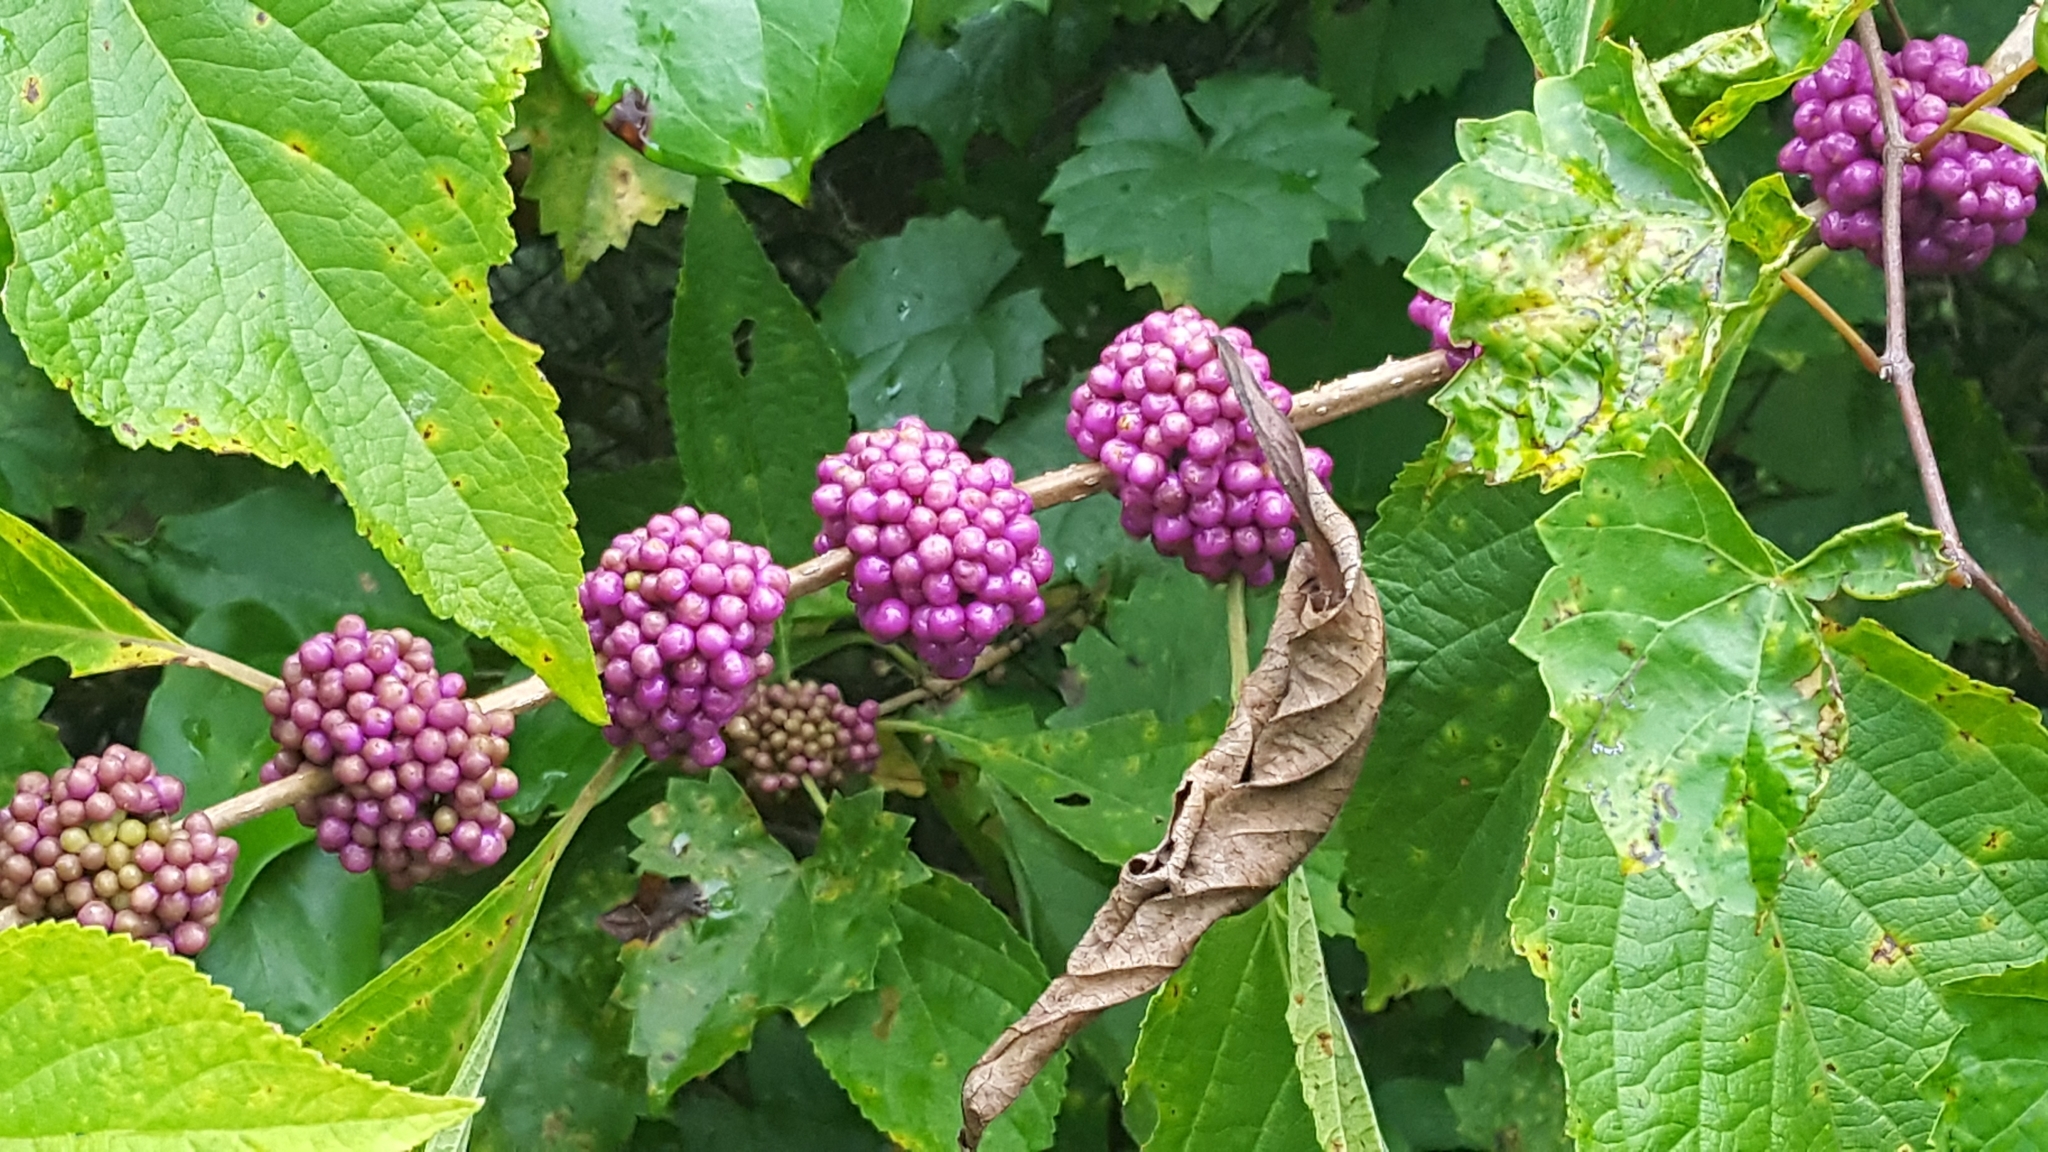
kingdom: Plantae
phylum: Tracheophyta
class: Magnoliopsida
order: Lamiales
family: Lamiaceae
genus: Callicarpa
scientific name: Callicarpa americana
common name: American beautyberry
